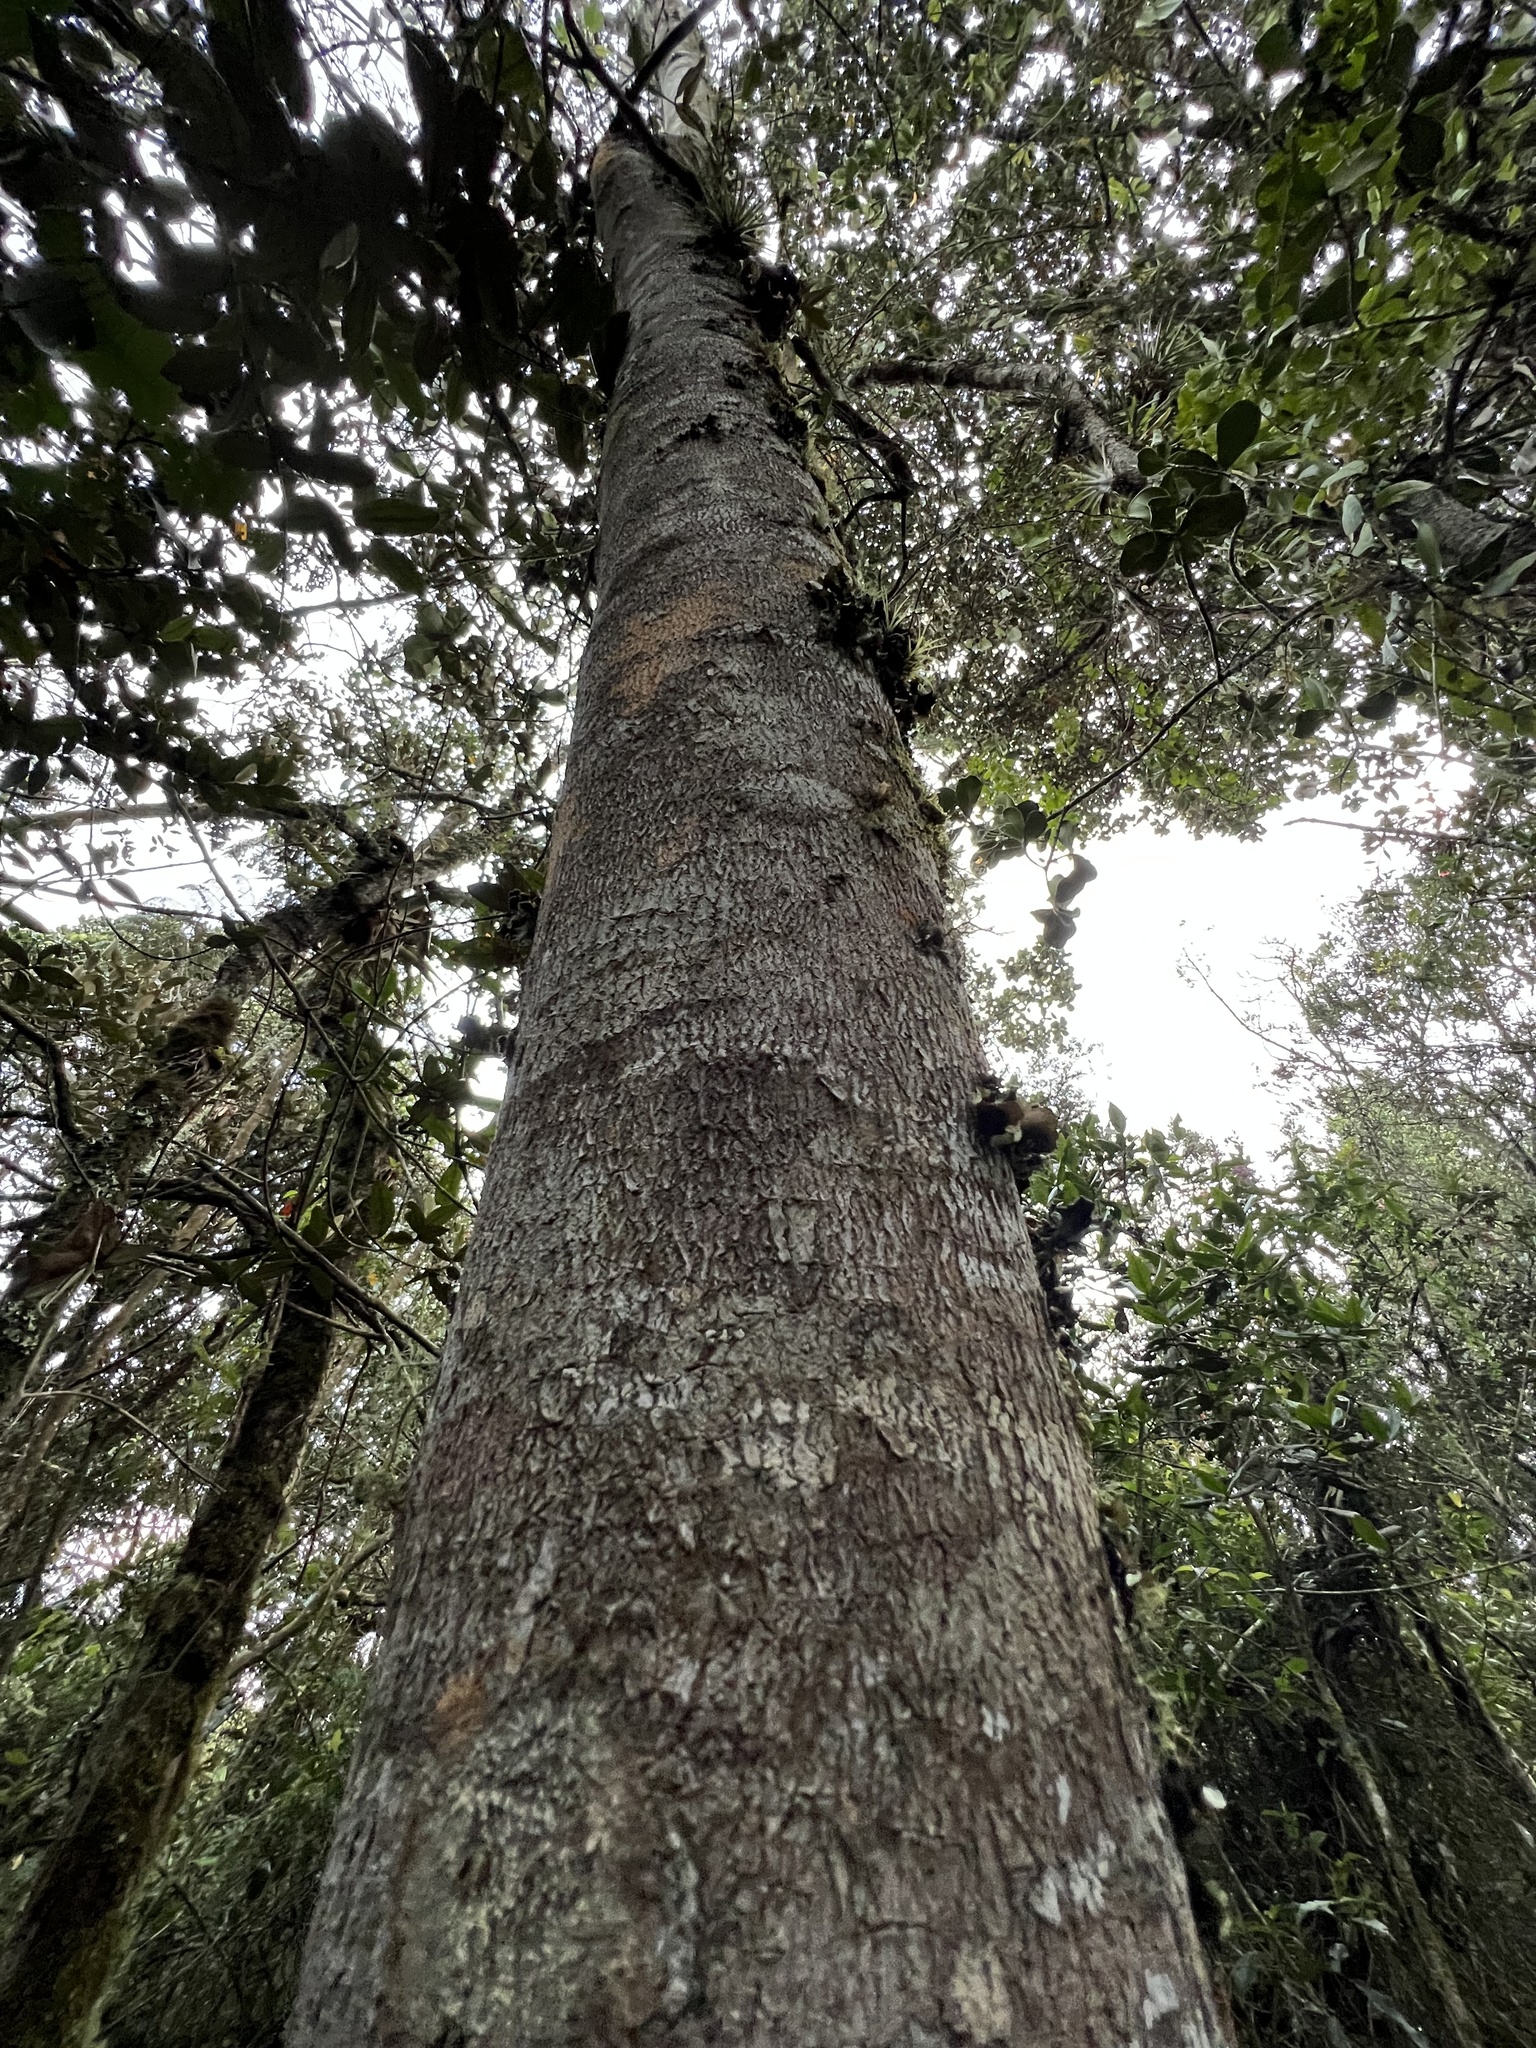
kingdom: Plantae
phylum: Tracheophyta
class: Magnoliopsida
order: Myrtales
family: Melastomataceae
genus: Axinaea
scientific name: Axinaea scutigera
